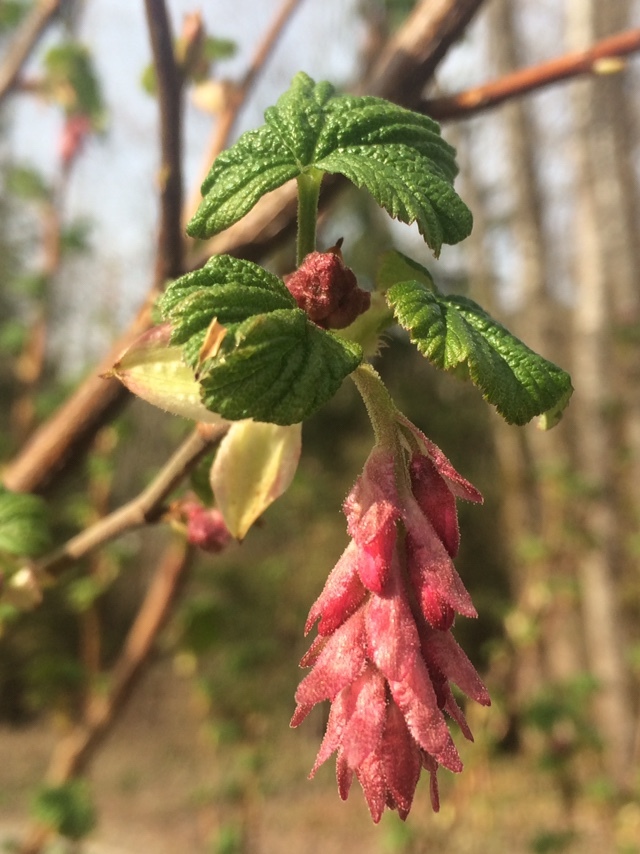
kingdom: Plantae
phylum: Tracheophyta
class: Magnoliopsida
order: Saxifragales
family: Grossulariaceae
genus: Ribes
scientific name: Ribes sanguineum
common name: Flowering currant
